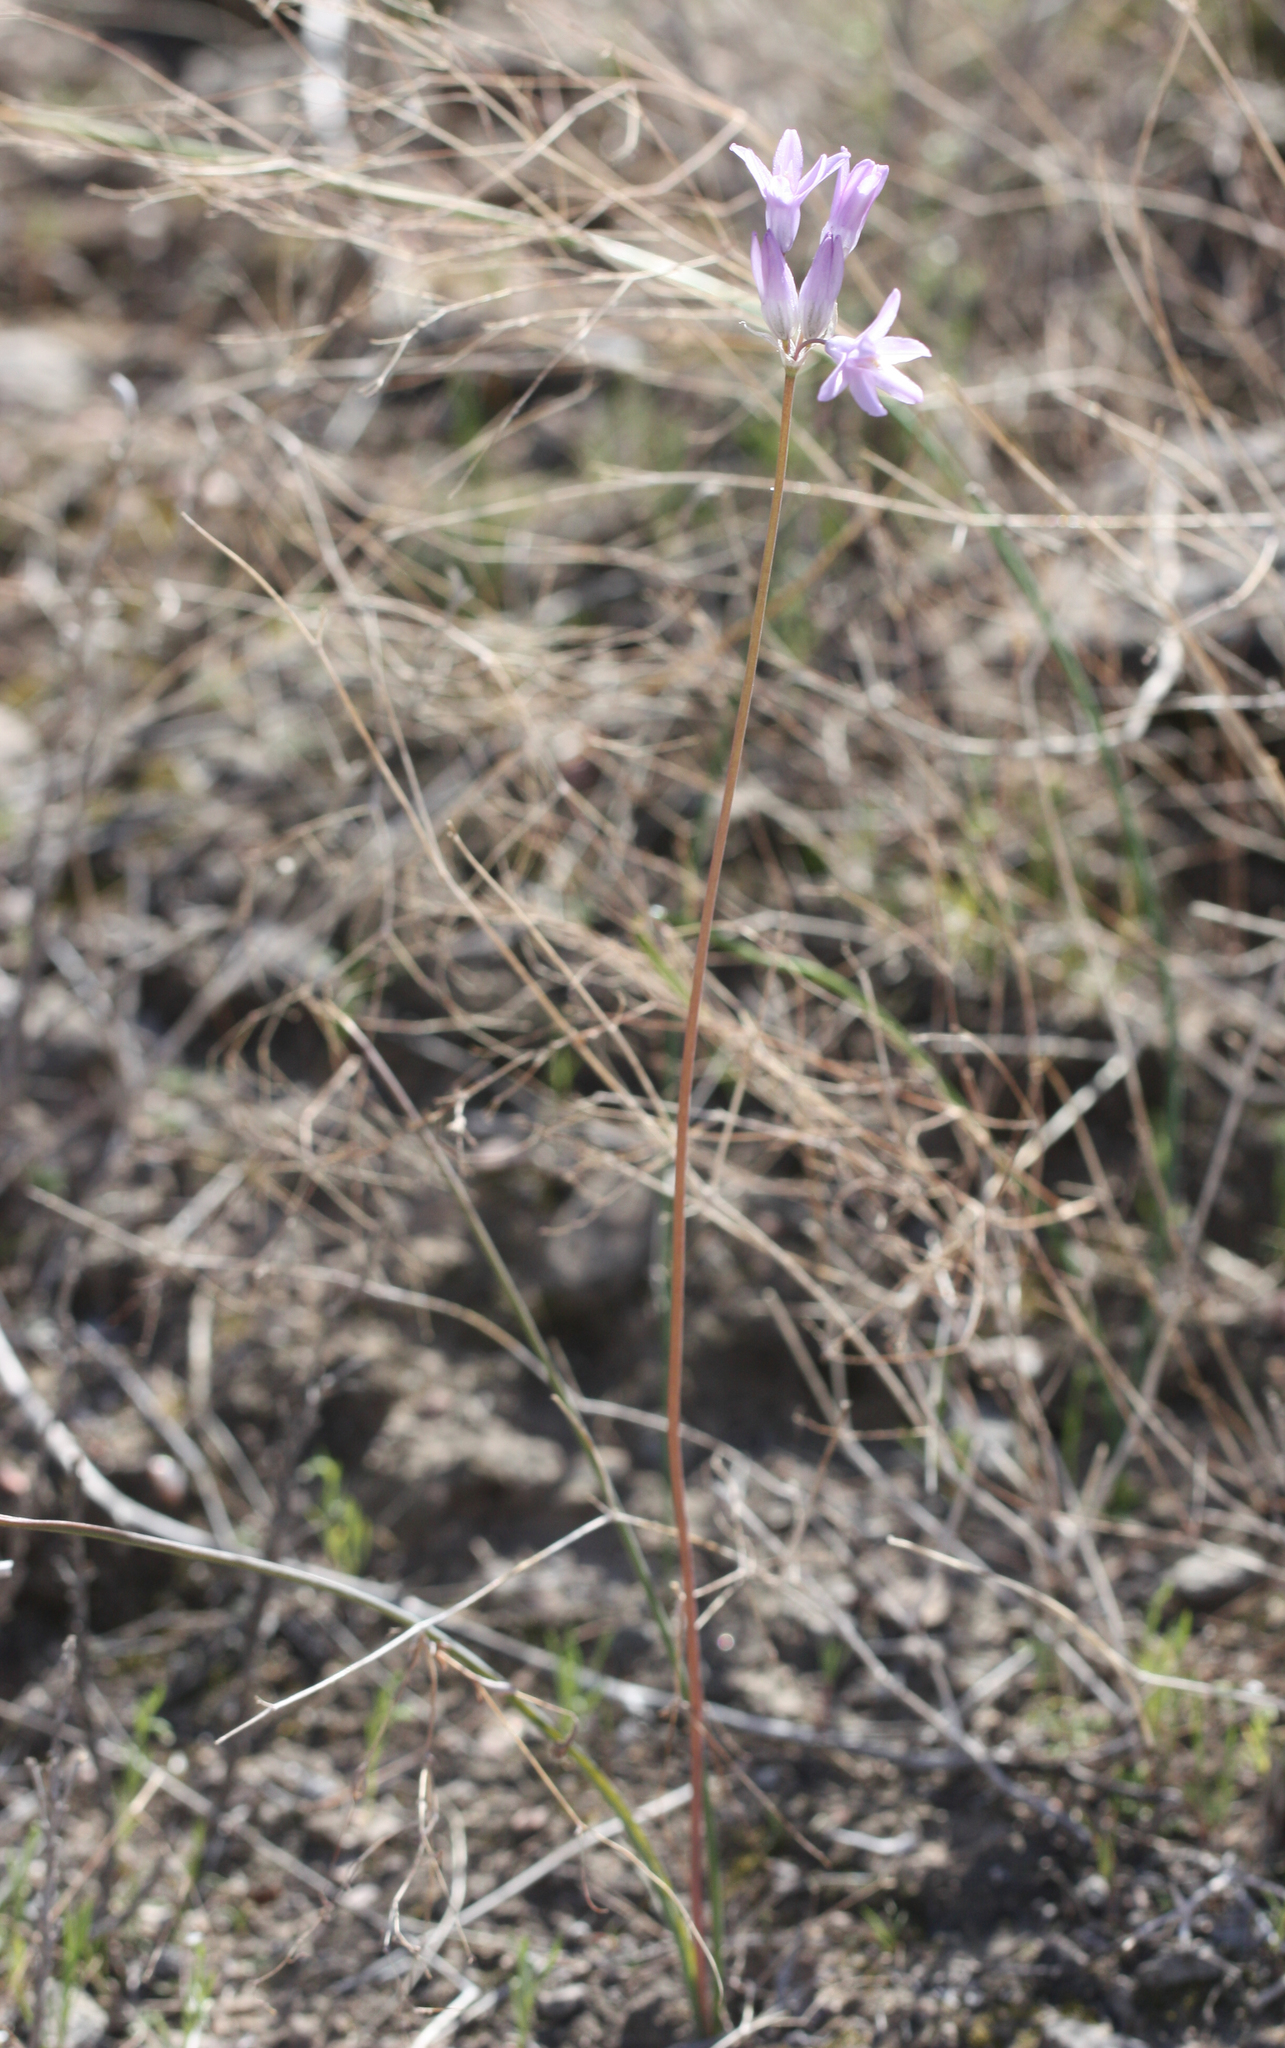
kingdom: Plantae
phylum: Tracheophyta
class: Liliopsida
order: Asparagales
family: Asparagaceae
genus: Dipterostemon
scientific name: Dipterostemon capitatus
